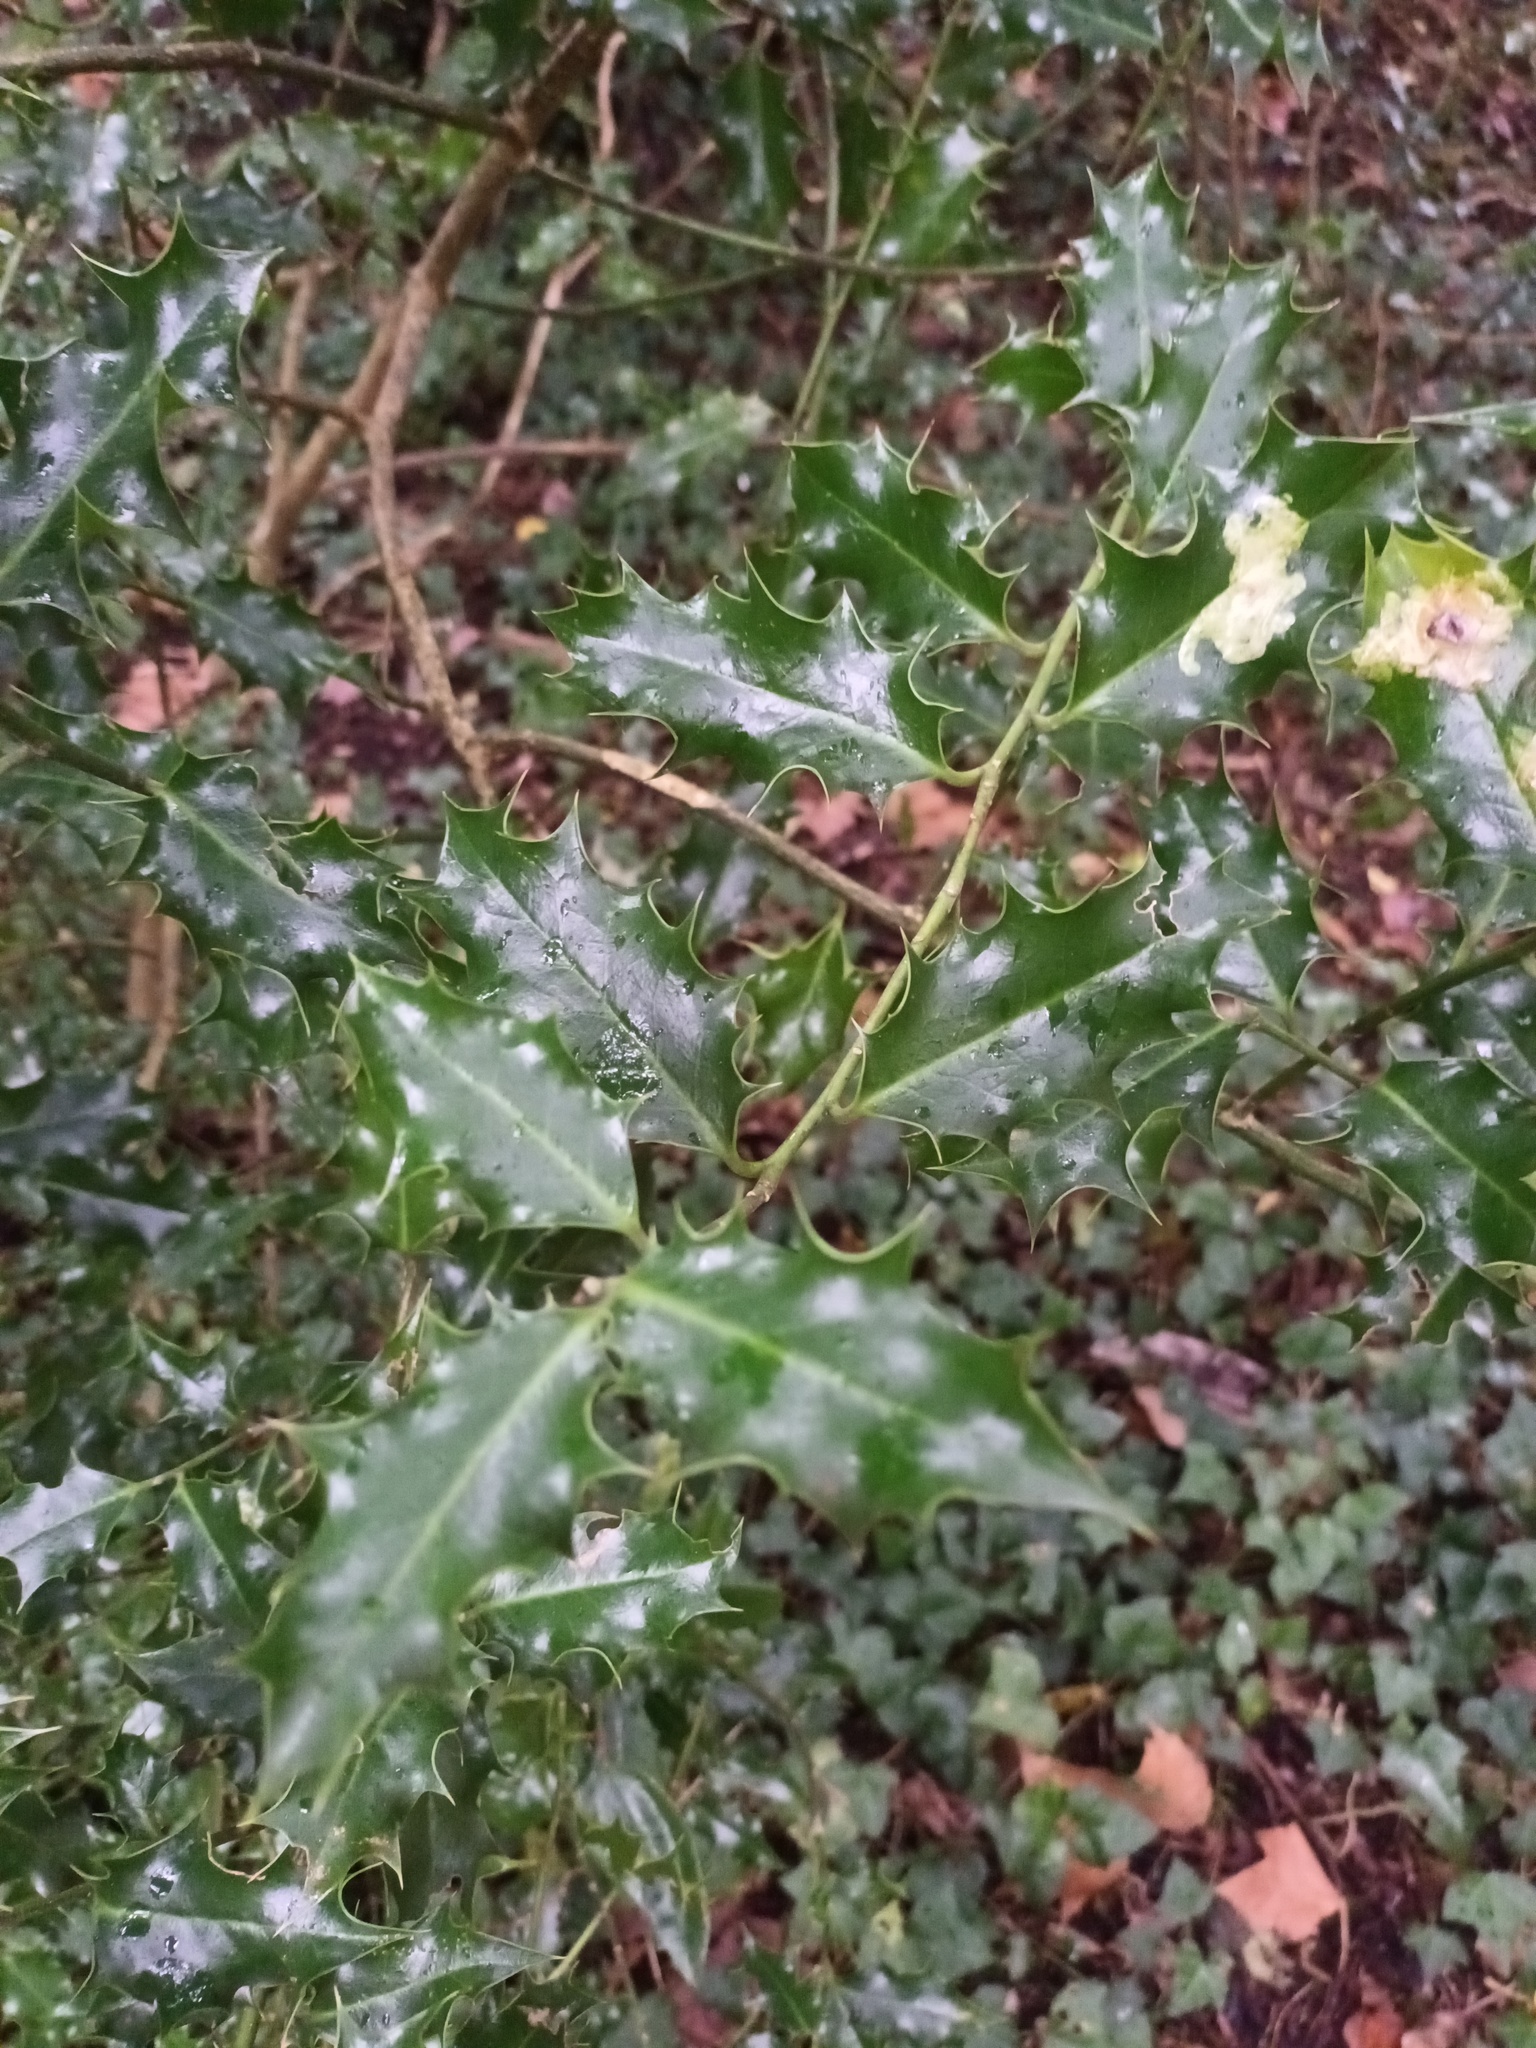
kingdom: Plantae
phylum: Tracheophyta
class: Magnoliopsida
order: Aquifoliales
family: Aquifoliaceae
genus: Ilex
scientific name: Ilex aquifolium
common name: English holly
